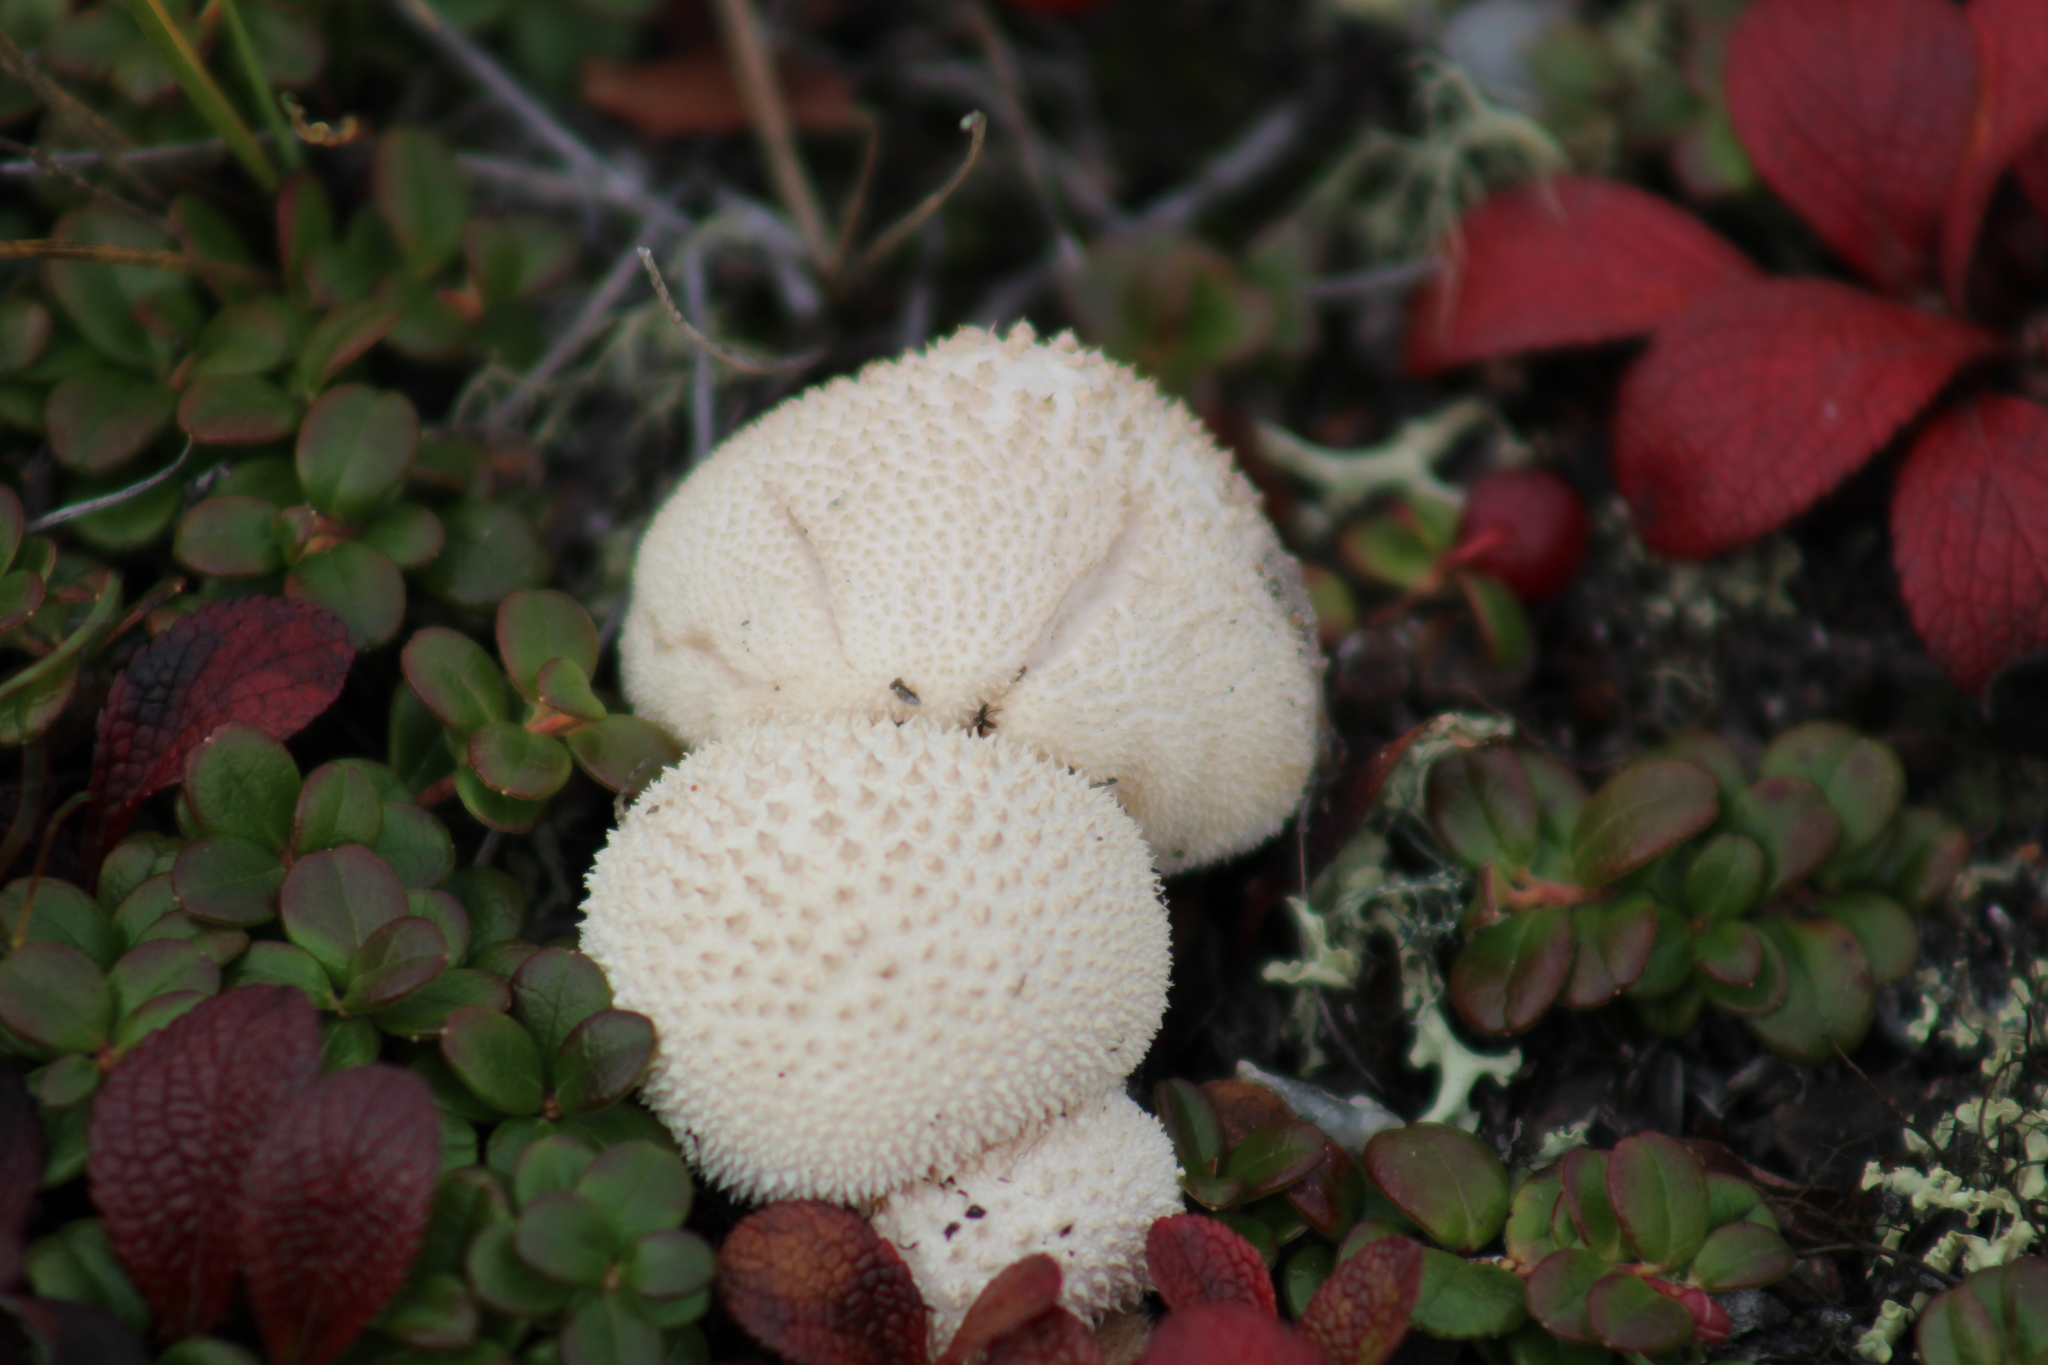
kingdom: Fungi
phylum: Basidiomycota
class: Agaricomycetes
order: Agaricales
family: Lycoperdaceae
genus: Lycoperdon
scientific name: Lycoperdon perlatum
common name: Common puffball
